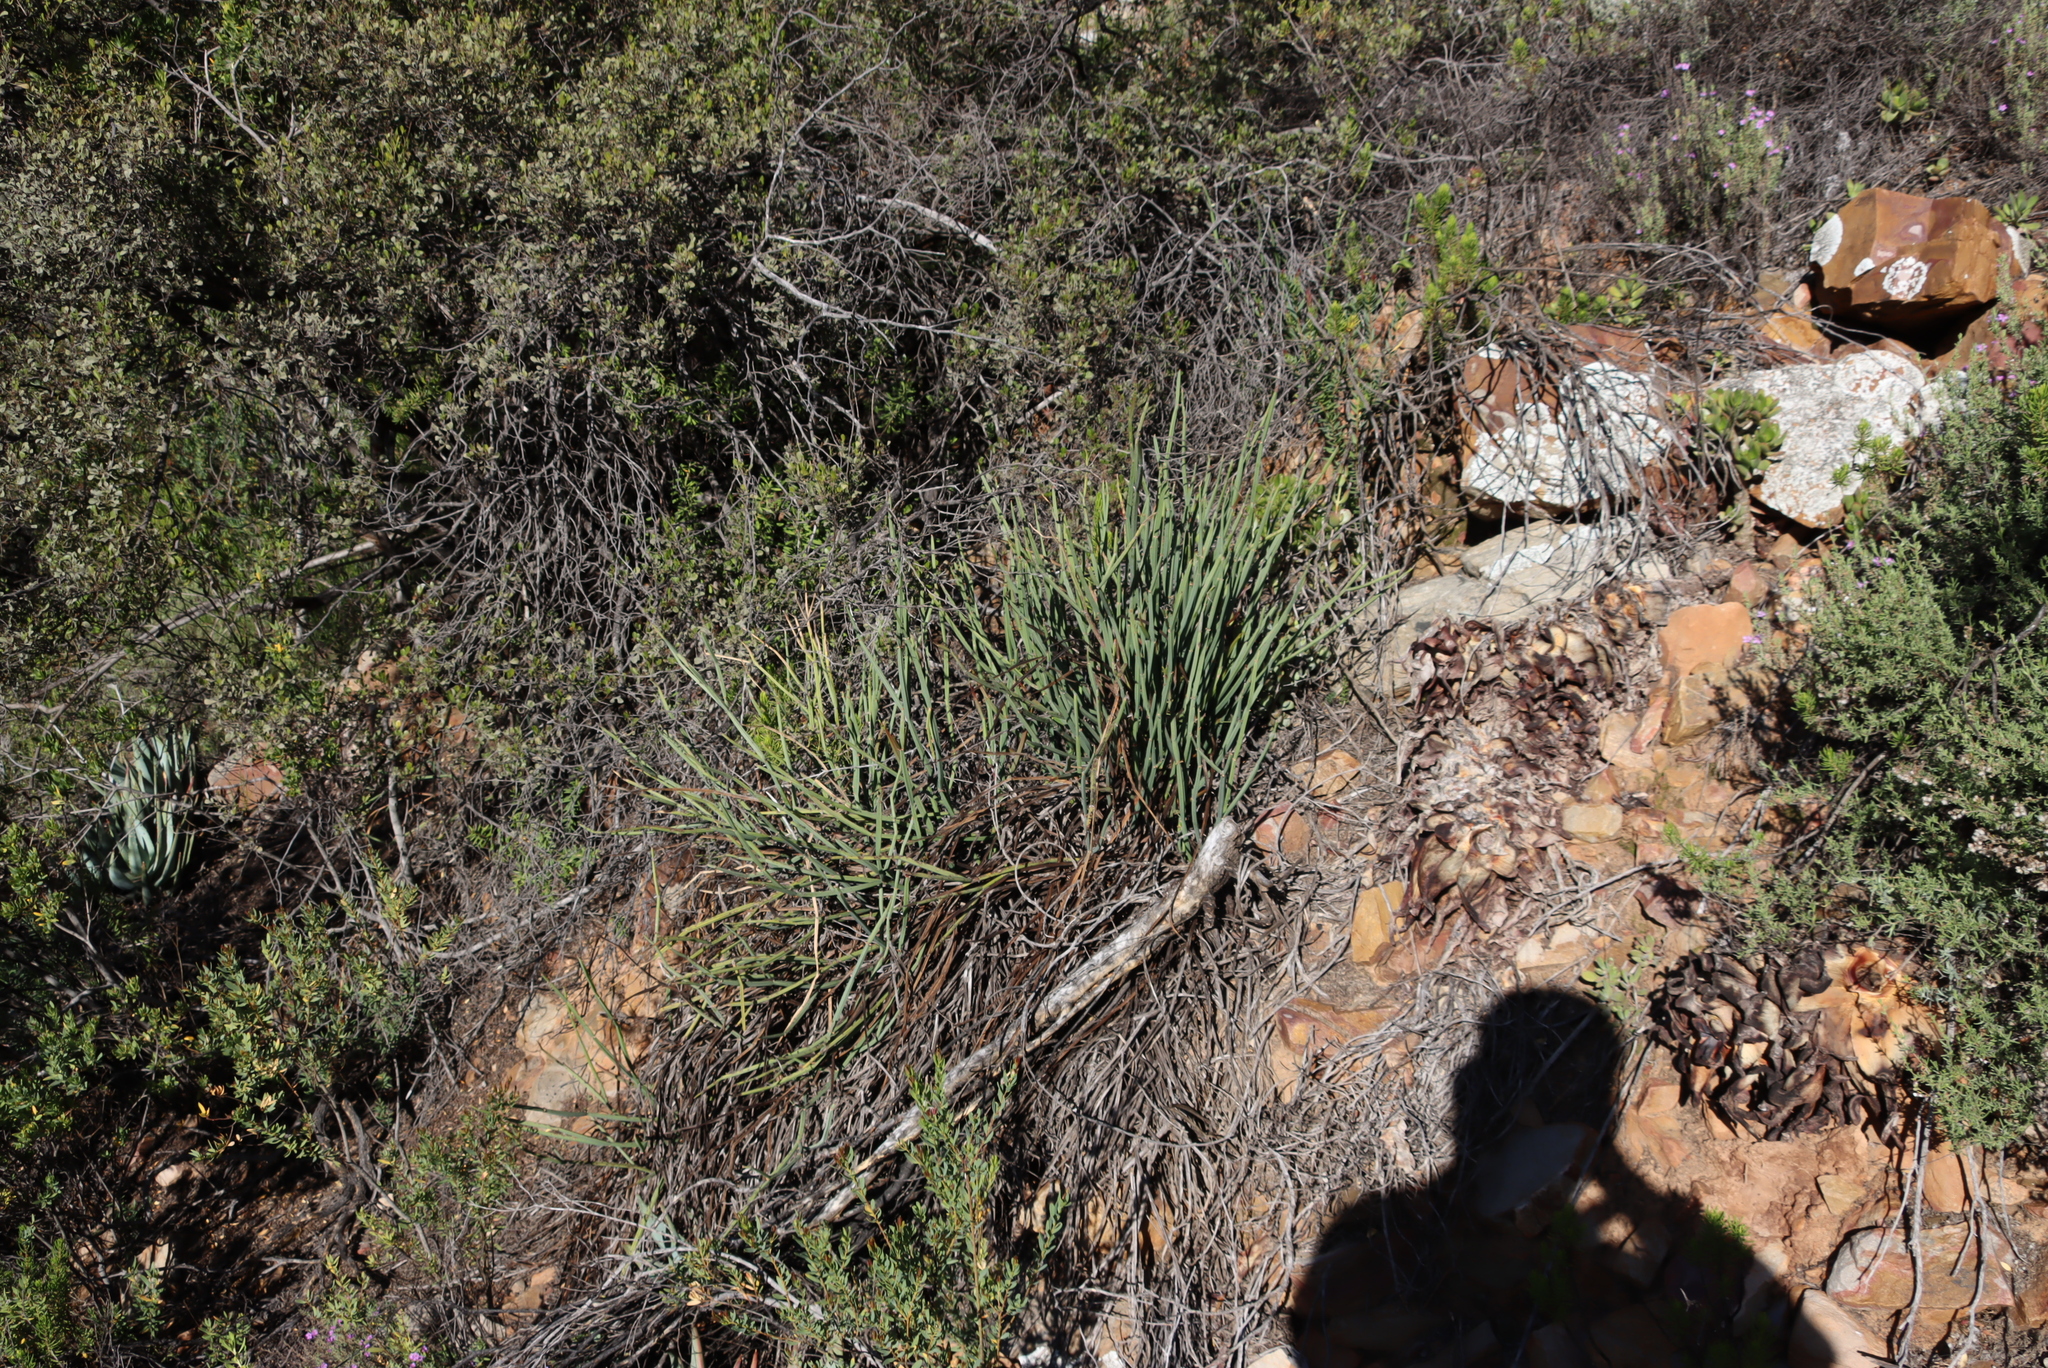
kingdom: Plantae
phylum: Tracheophyta
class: Magnoliopsida
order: Geraniales
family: Geraniaceae
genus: Pelargonium
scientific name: Pelargonium tetragonum
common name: Square-stack crane's-bill
